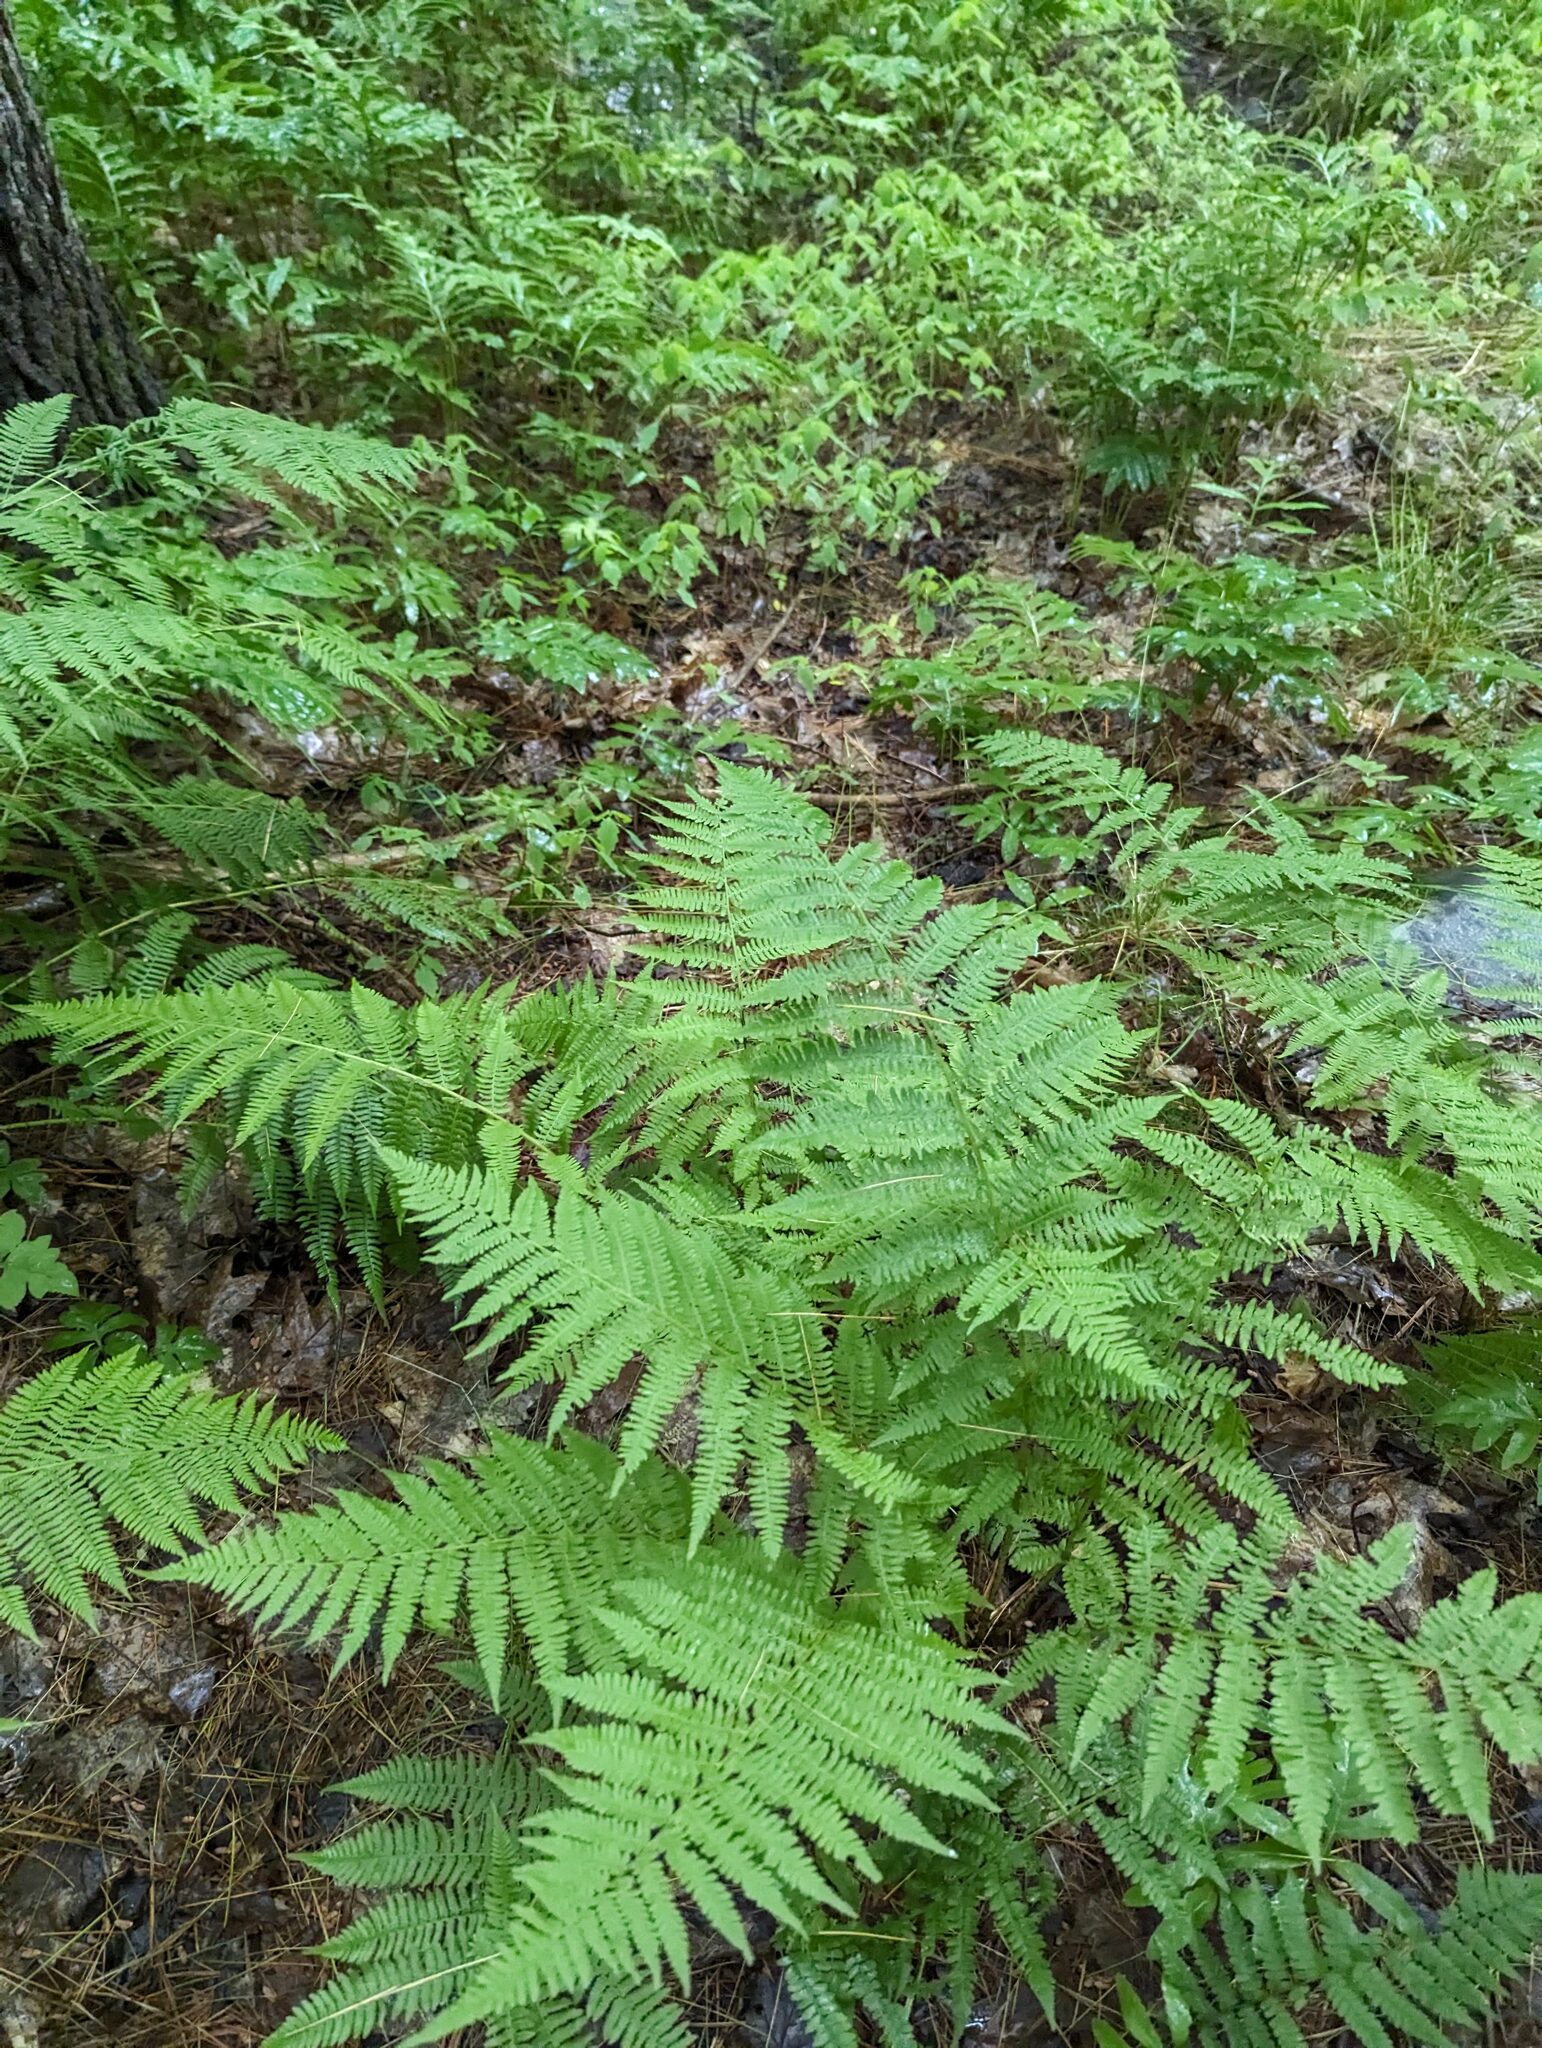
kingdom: Plantae
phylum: Tracheophyta
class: Polypodiopsida
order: Polypodiales
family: Athyriaceae
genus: Athyrium
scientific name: Athyrium angustum
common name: Northern lady fern
